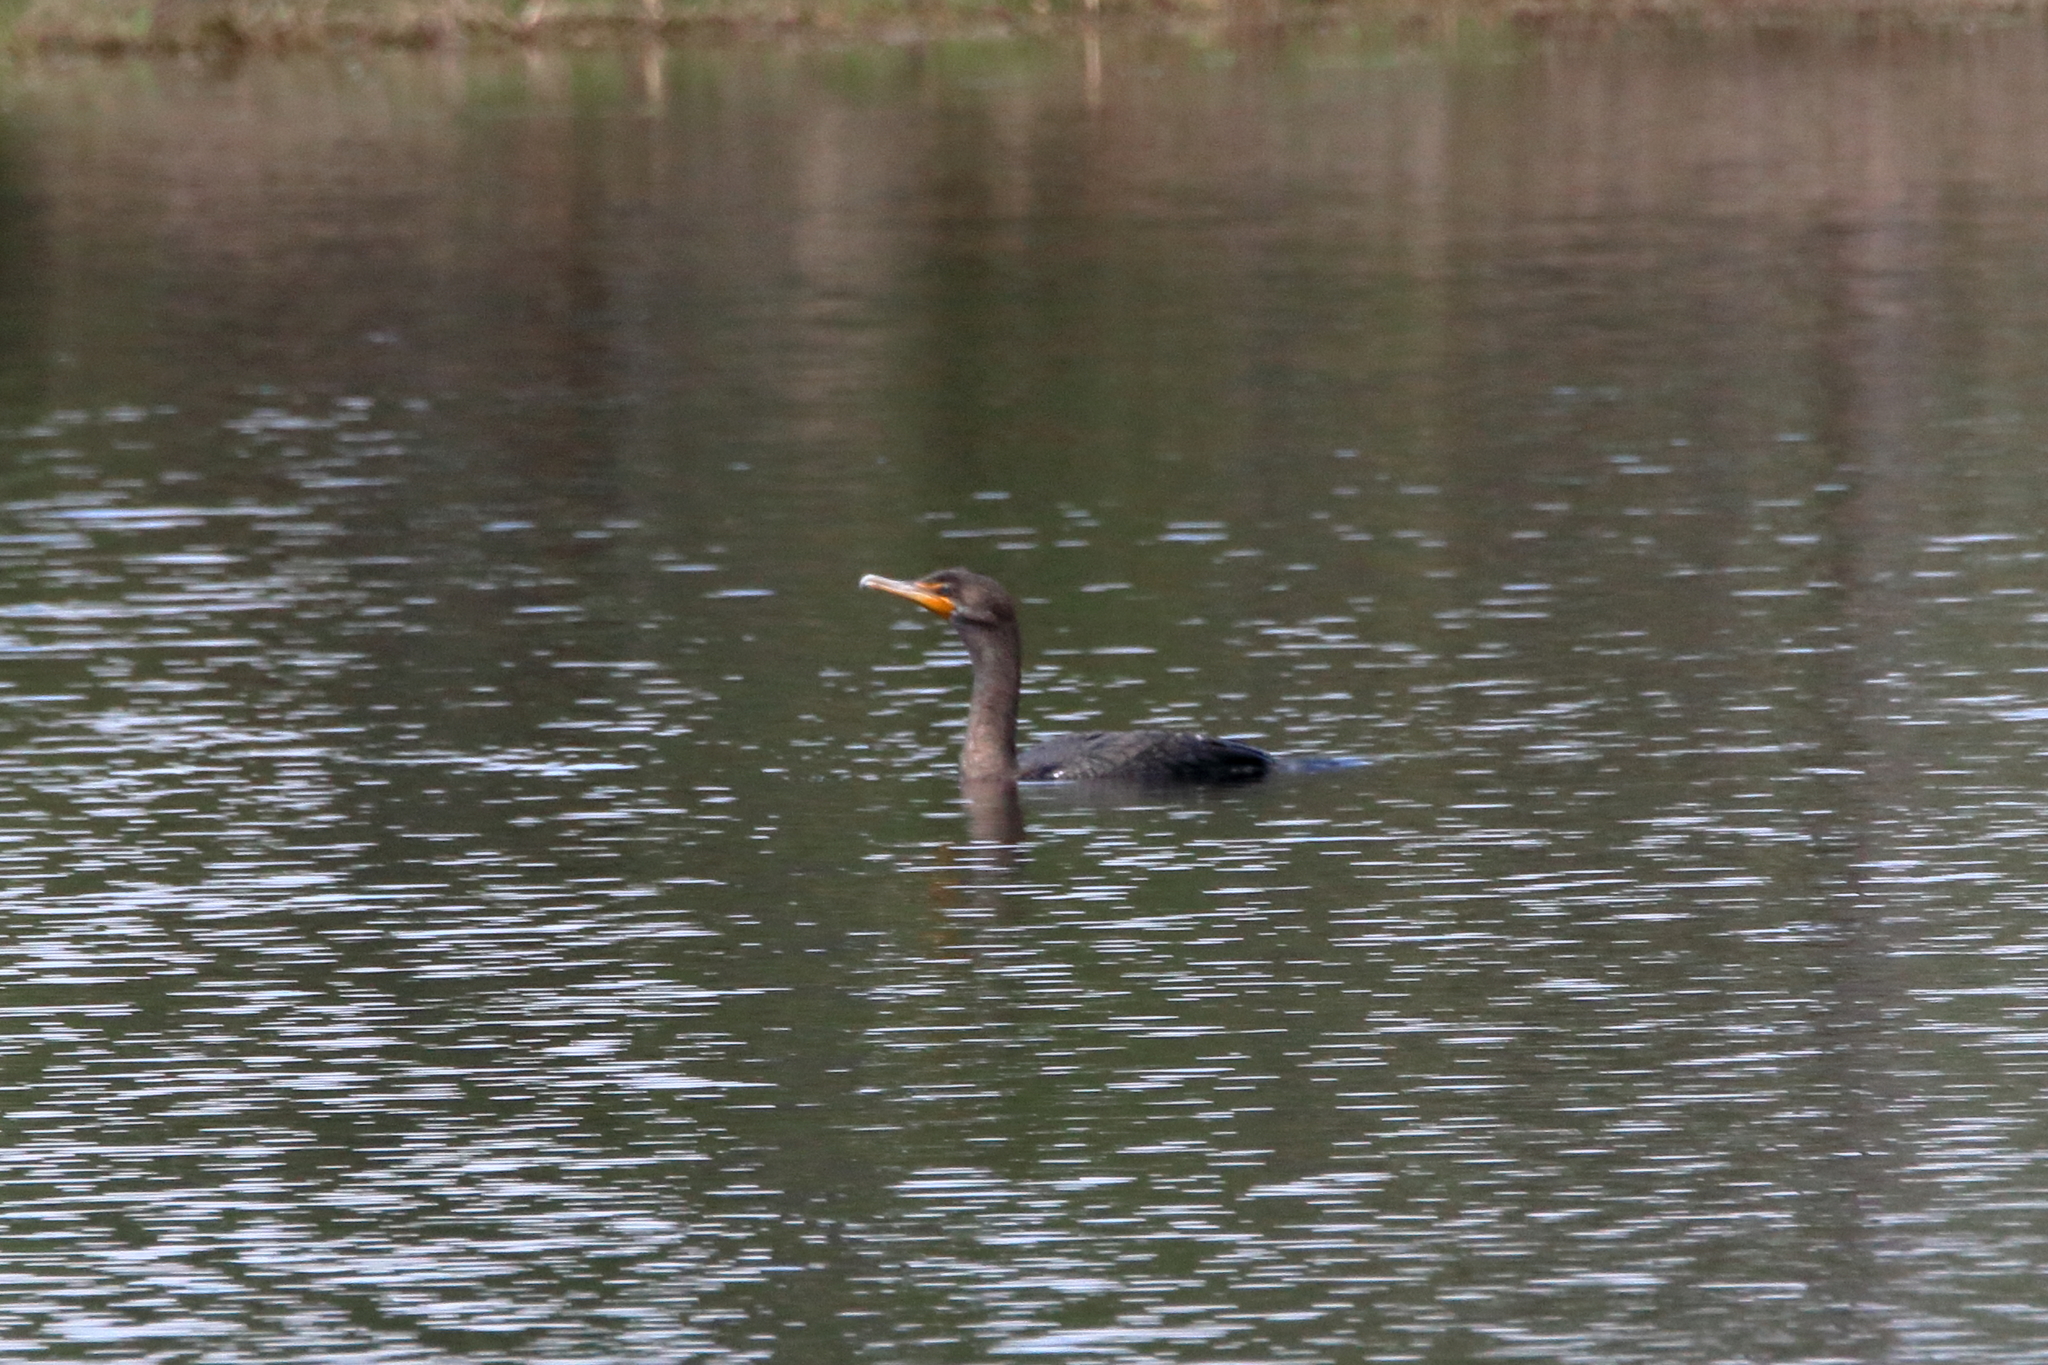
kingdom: Animalia
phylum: Chordata
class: Aves
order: Suliformes
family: Phalacrocoracidae
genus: Phalacrocorax
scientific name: Phalacrocorax auritus
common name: Double-crested cormorant
